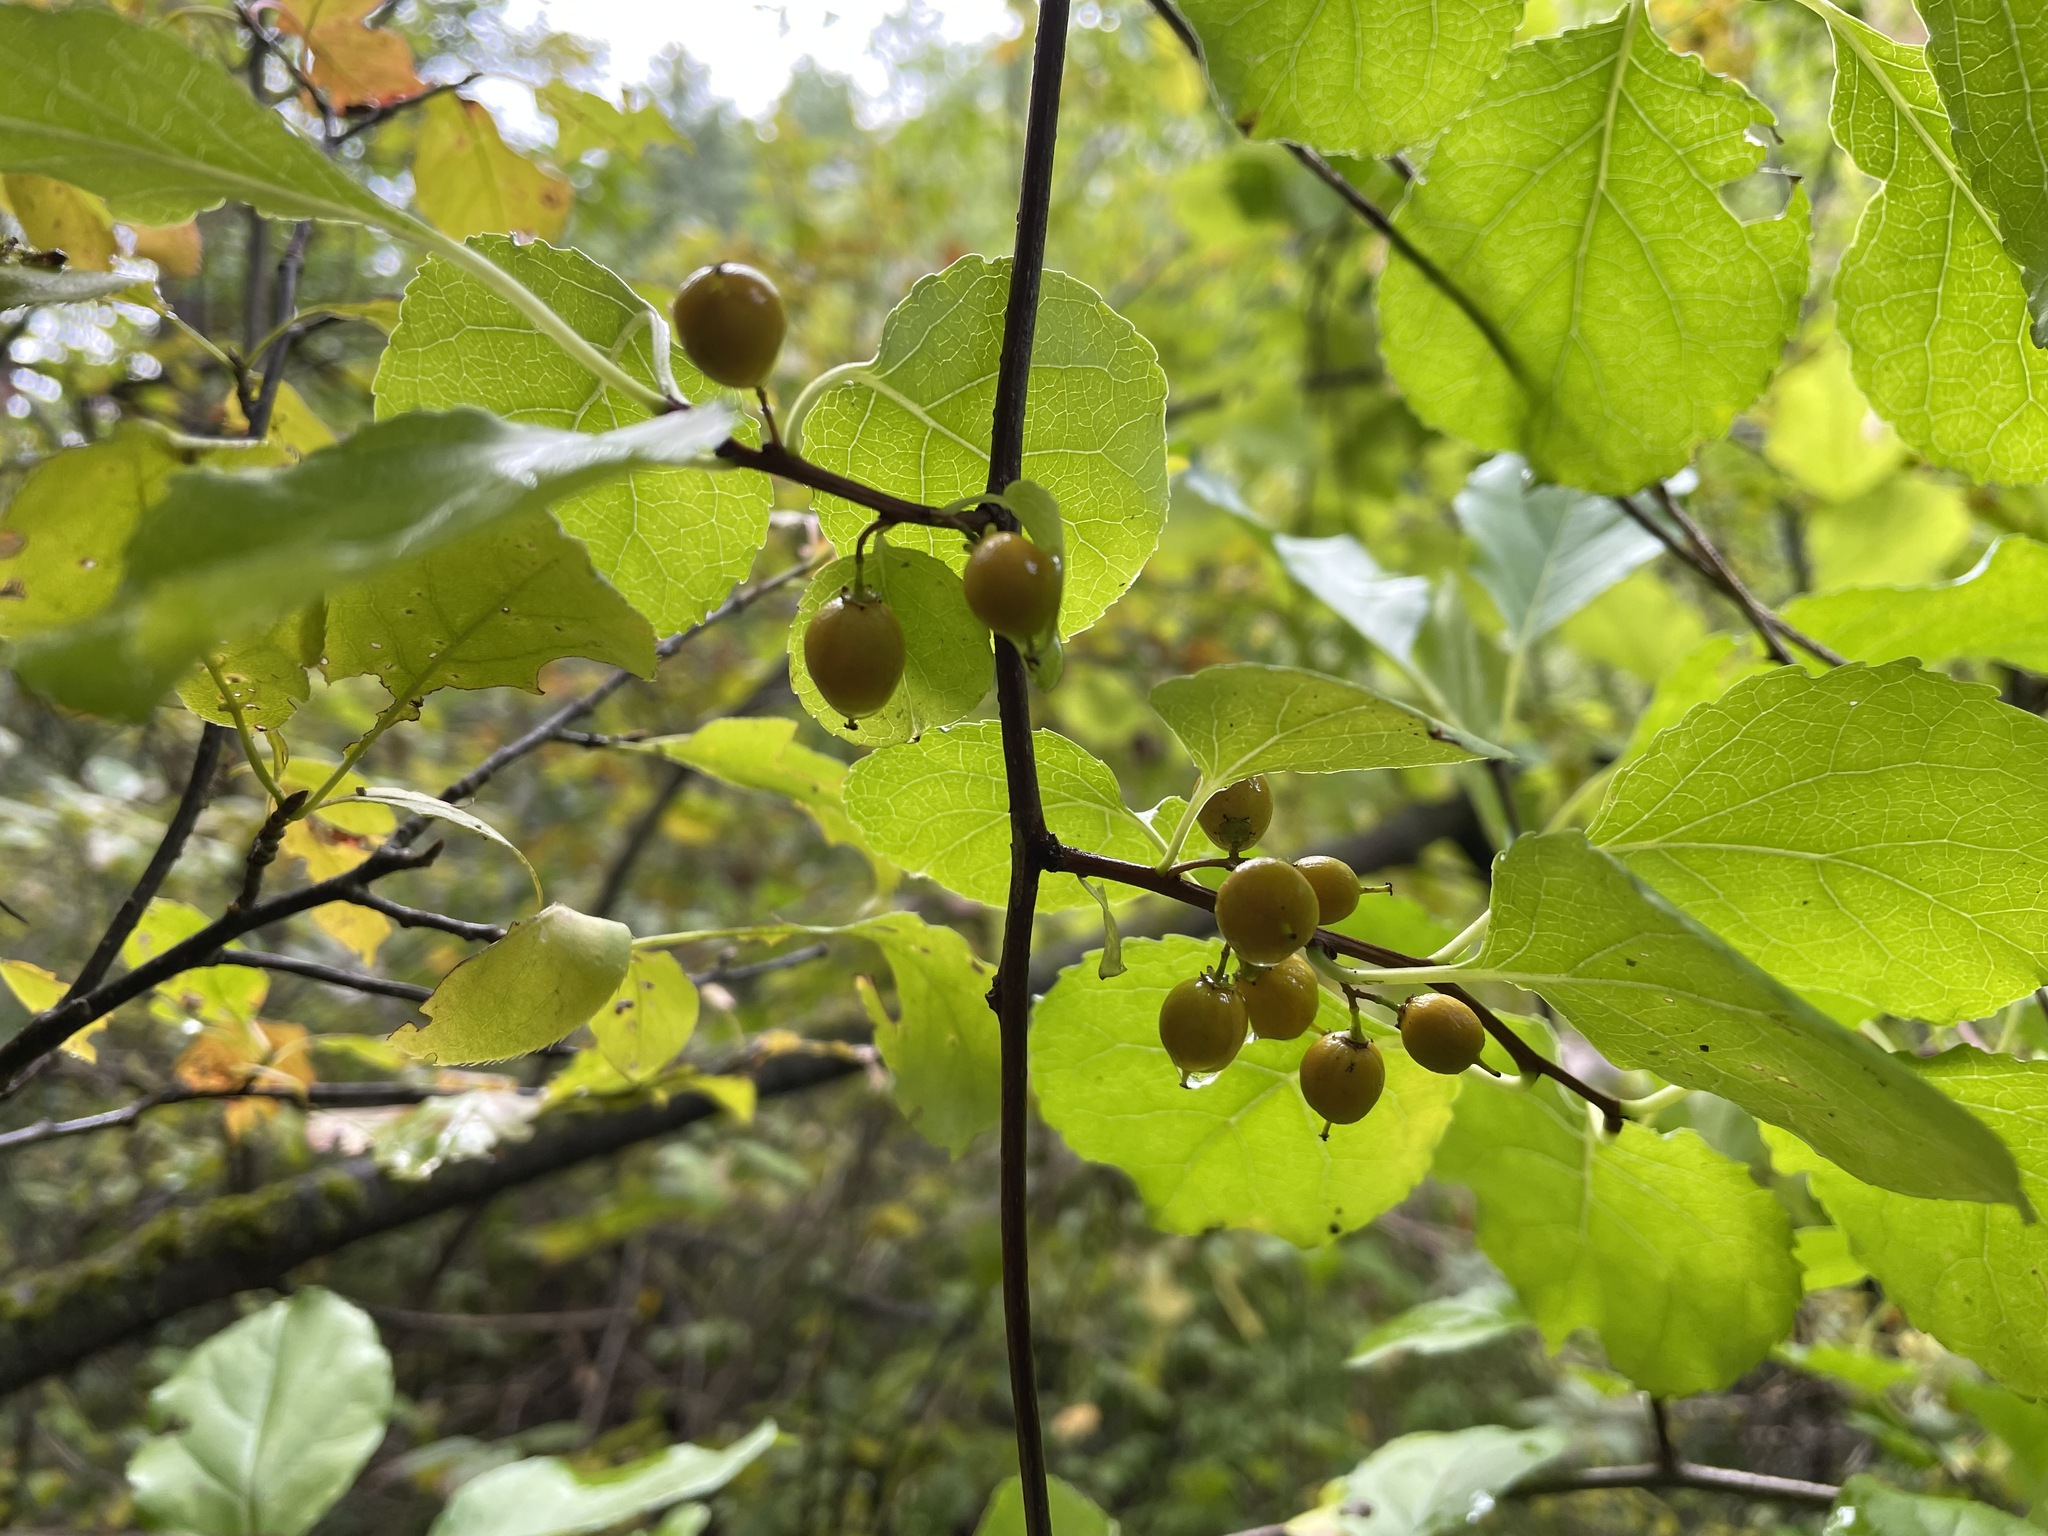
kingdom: Plantae
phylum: Tracheophyta
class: Magnoliopsida
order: Celastrales
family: Celastraceae
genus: Celastrus
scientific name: Celastrus orbiculatus
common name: Oriental bittersweet
